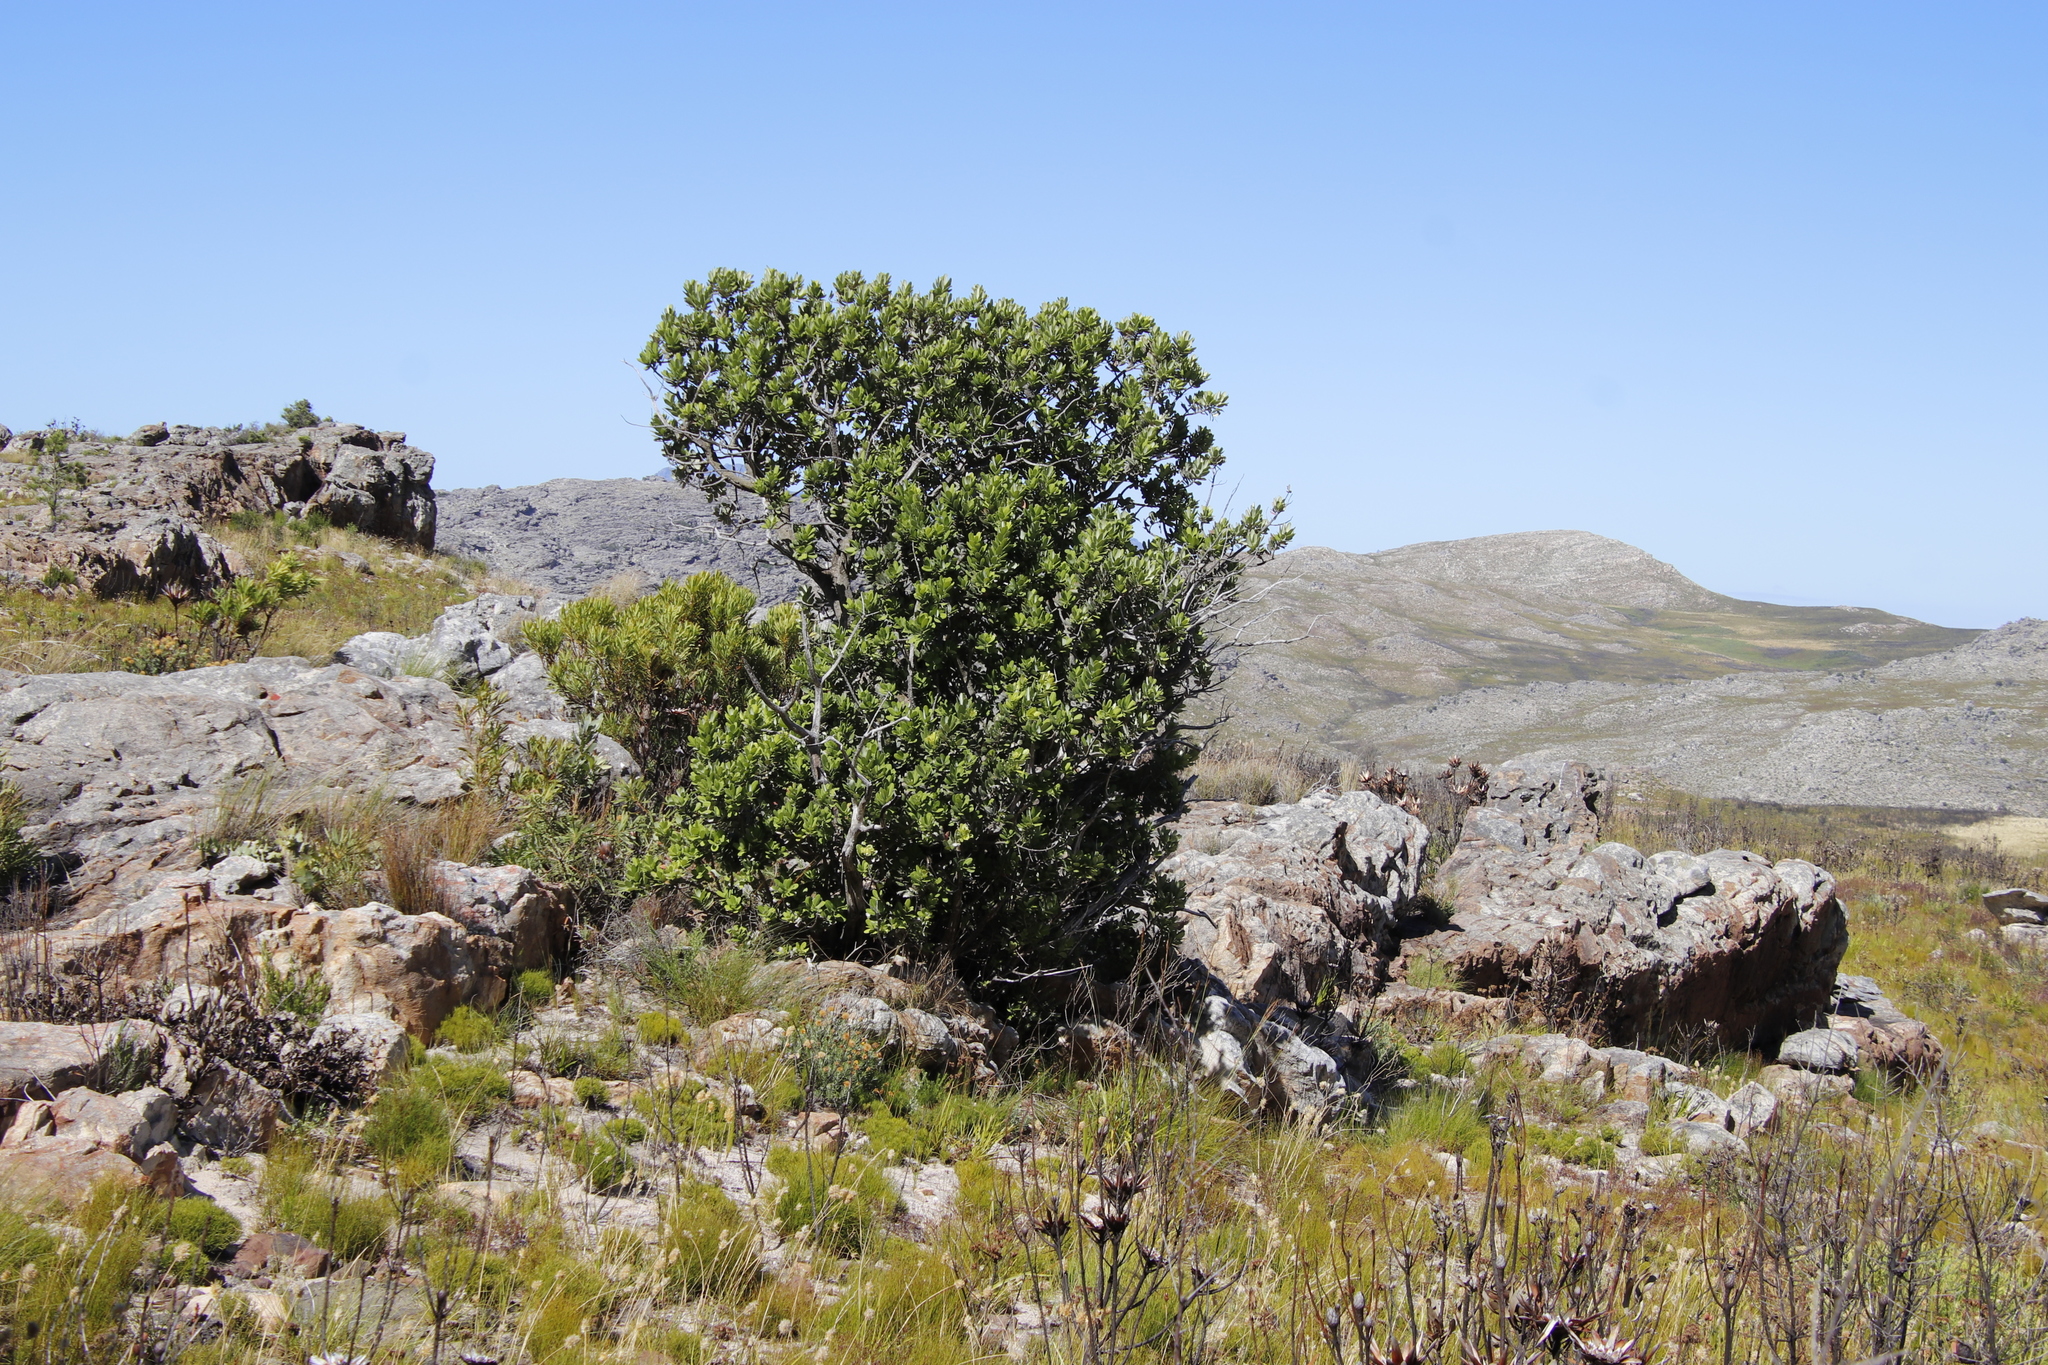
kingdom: Plantae
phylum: Tracheophyta
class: Magnoliopsida
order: Sapindales
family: Anacardiaceae
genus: Heeria
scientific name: Heeria argentea
